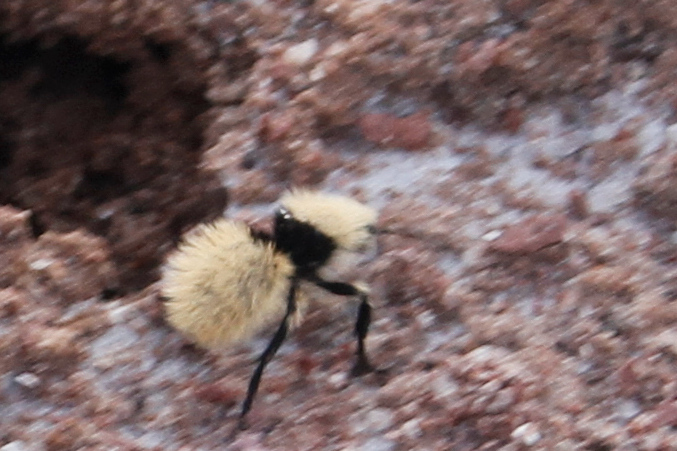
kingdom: Animalia
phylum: Arthropoda
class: Insecta
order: Hymenoptera
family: Mutillidae
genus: Dasymutilla
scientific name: Dasymutilla
